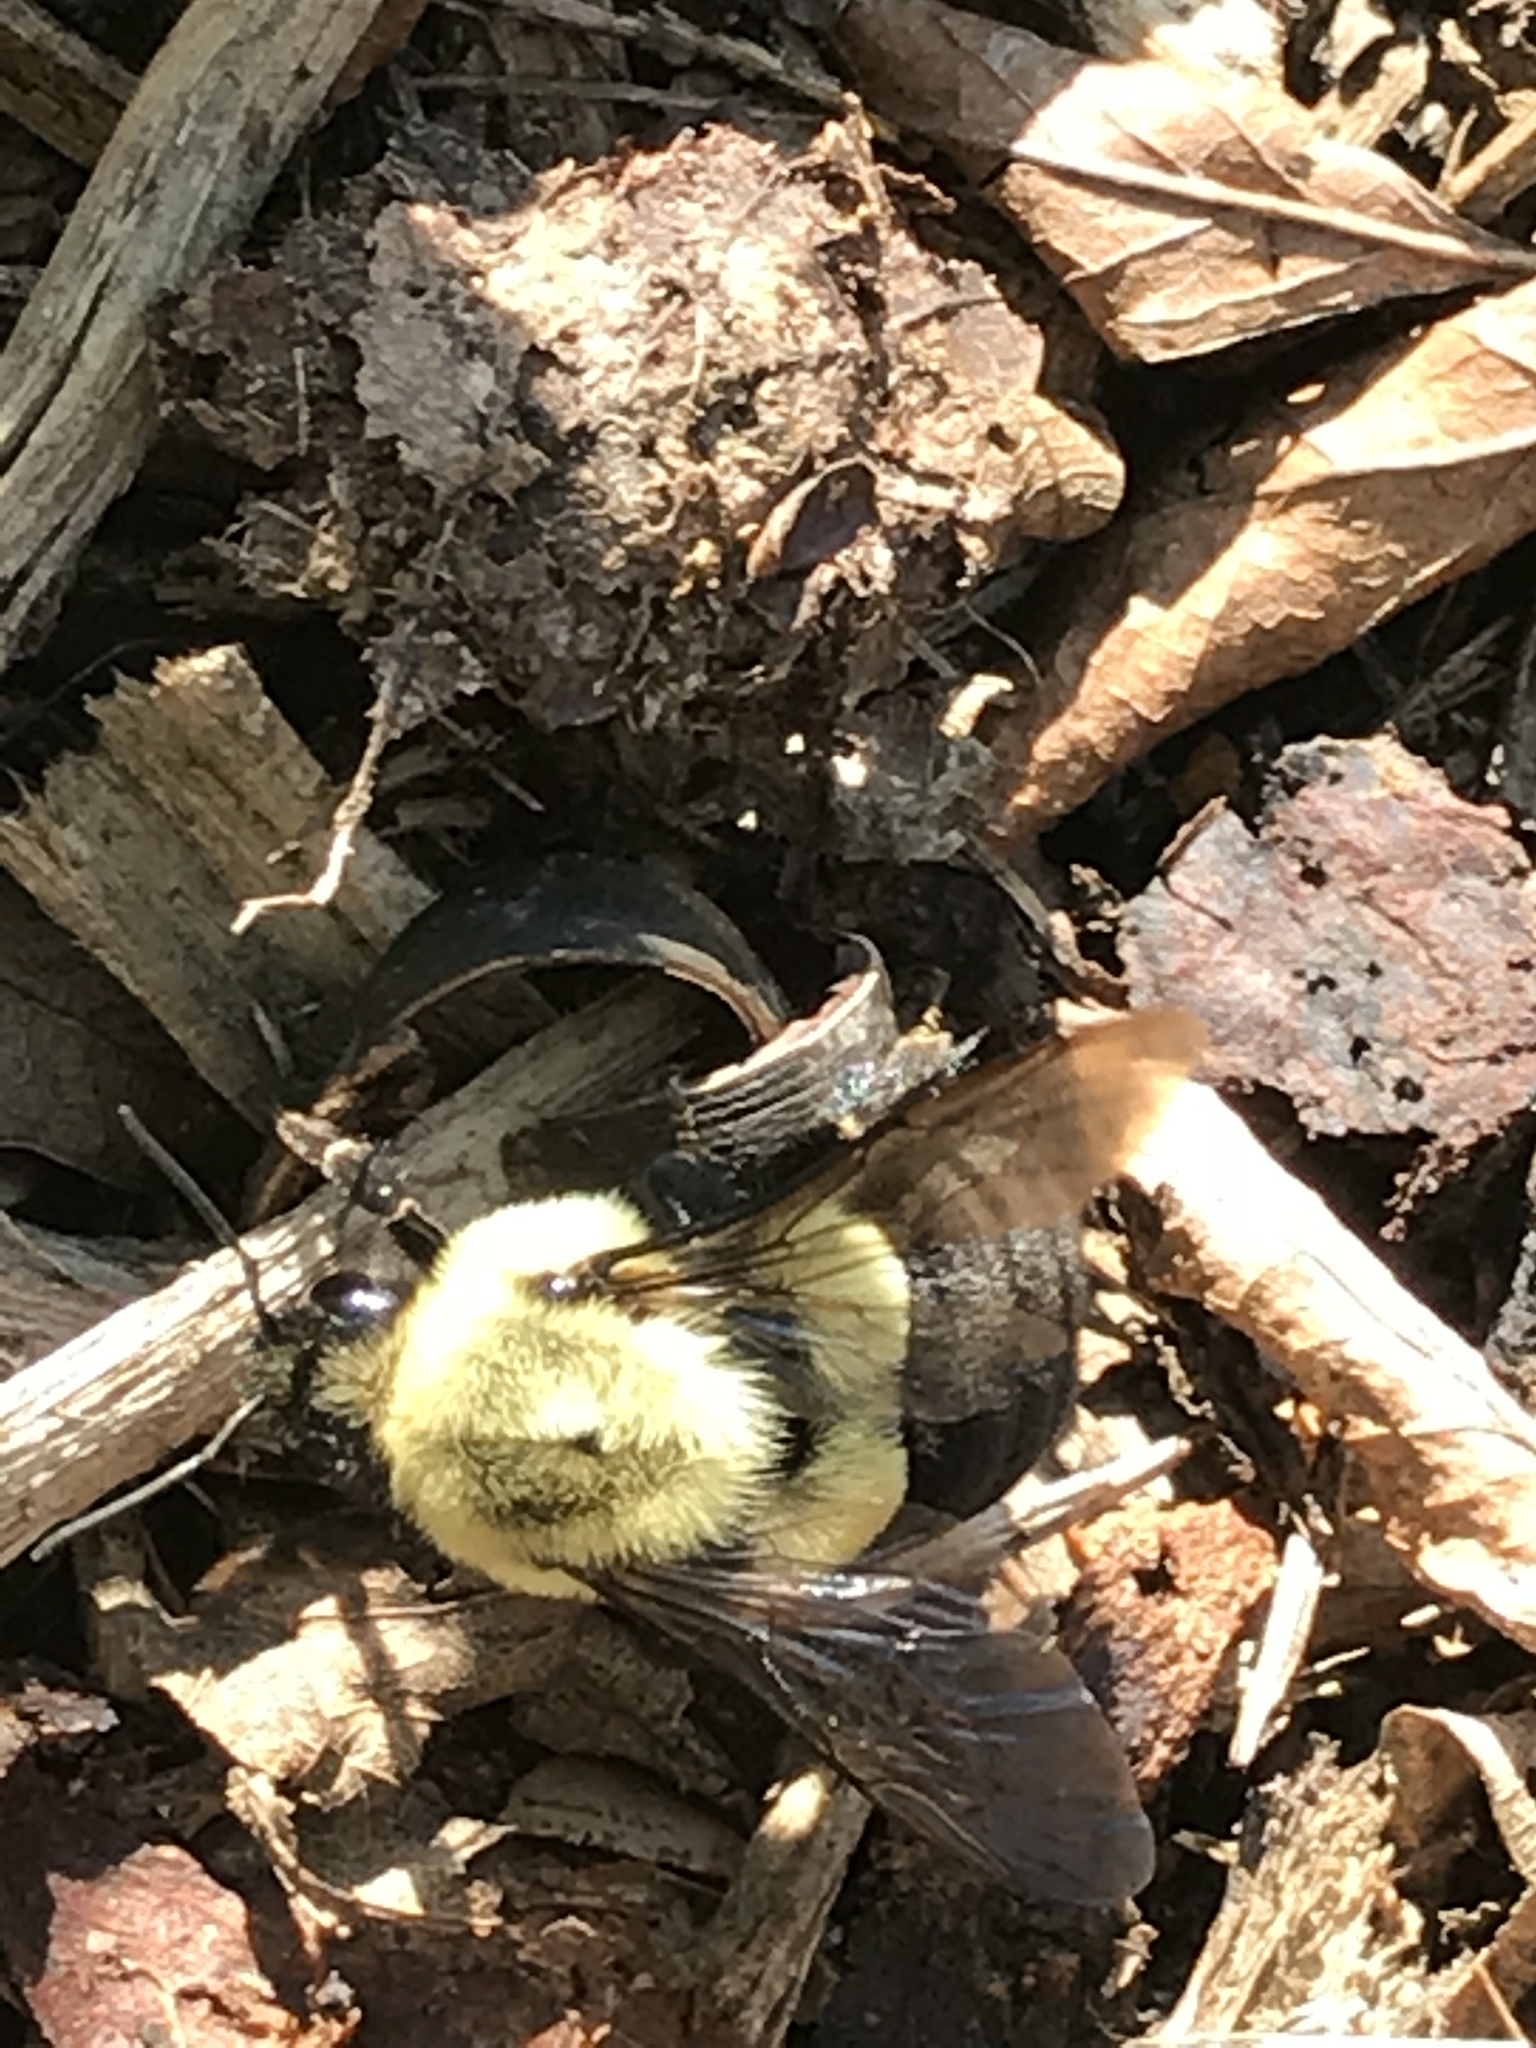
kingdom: Animalia
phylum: Arthropoda
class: Insecta
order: Hymenoptera
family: Apidae
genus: Bombus
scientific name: Bombus impatiens
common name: Common eastern bumble bee
